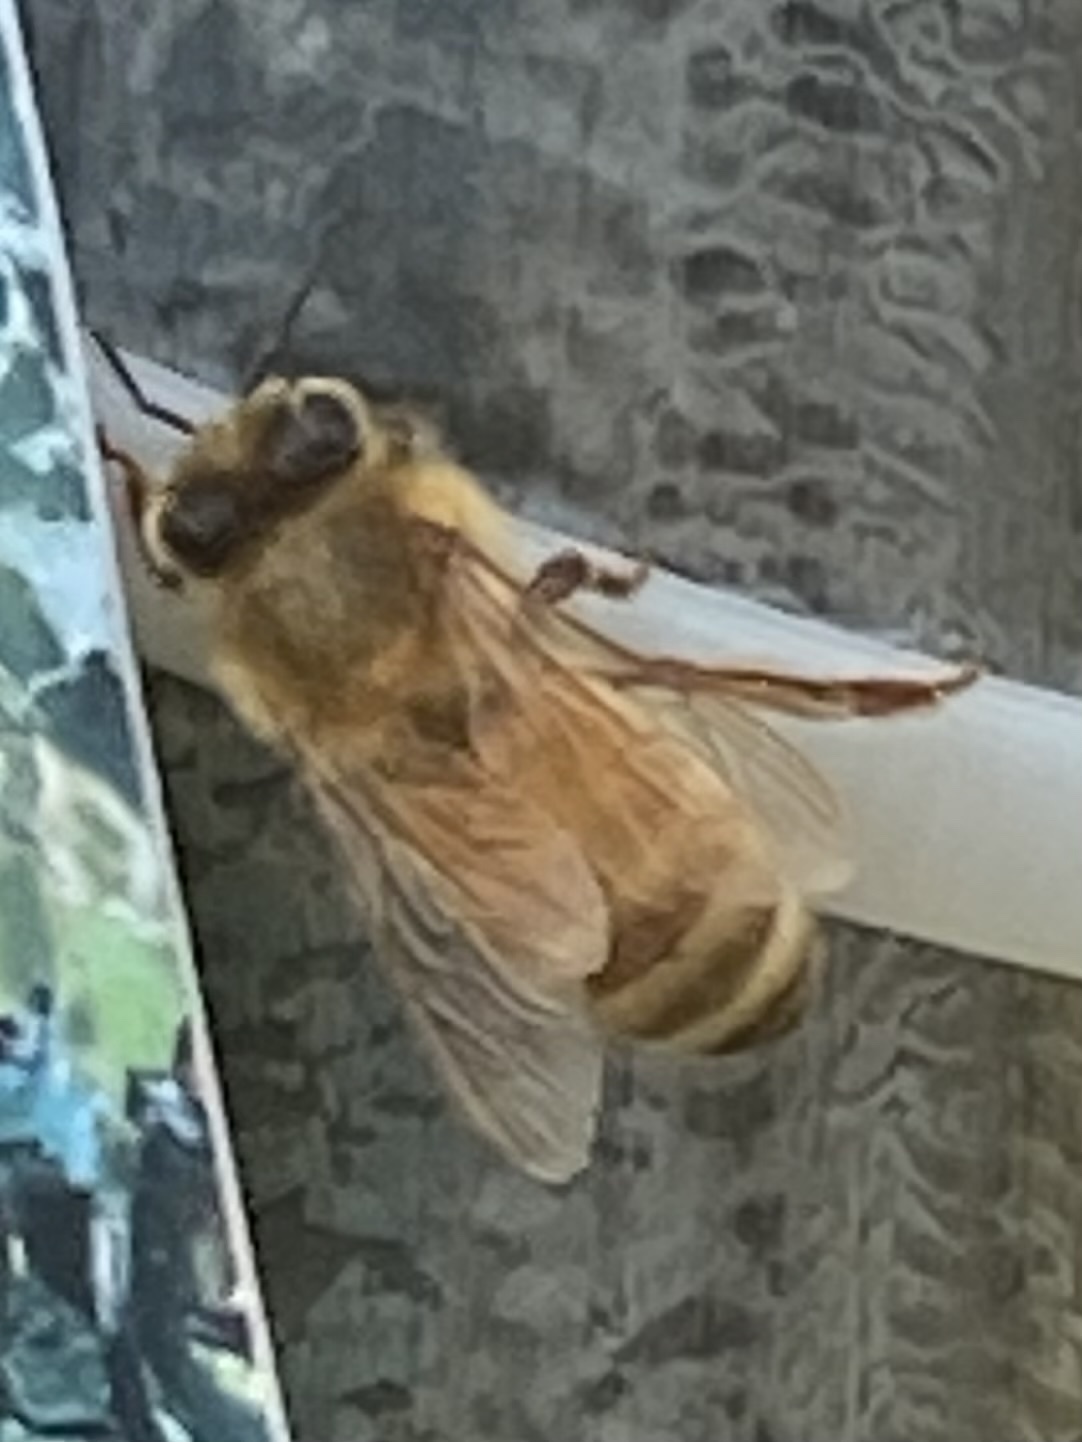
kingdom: Animalia
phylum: Arthropoda
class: Insecta
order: Hymenoptera
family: Apidae
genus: Apis
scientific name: Apis mellifera
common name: Honey bee
